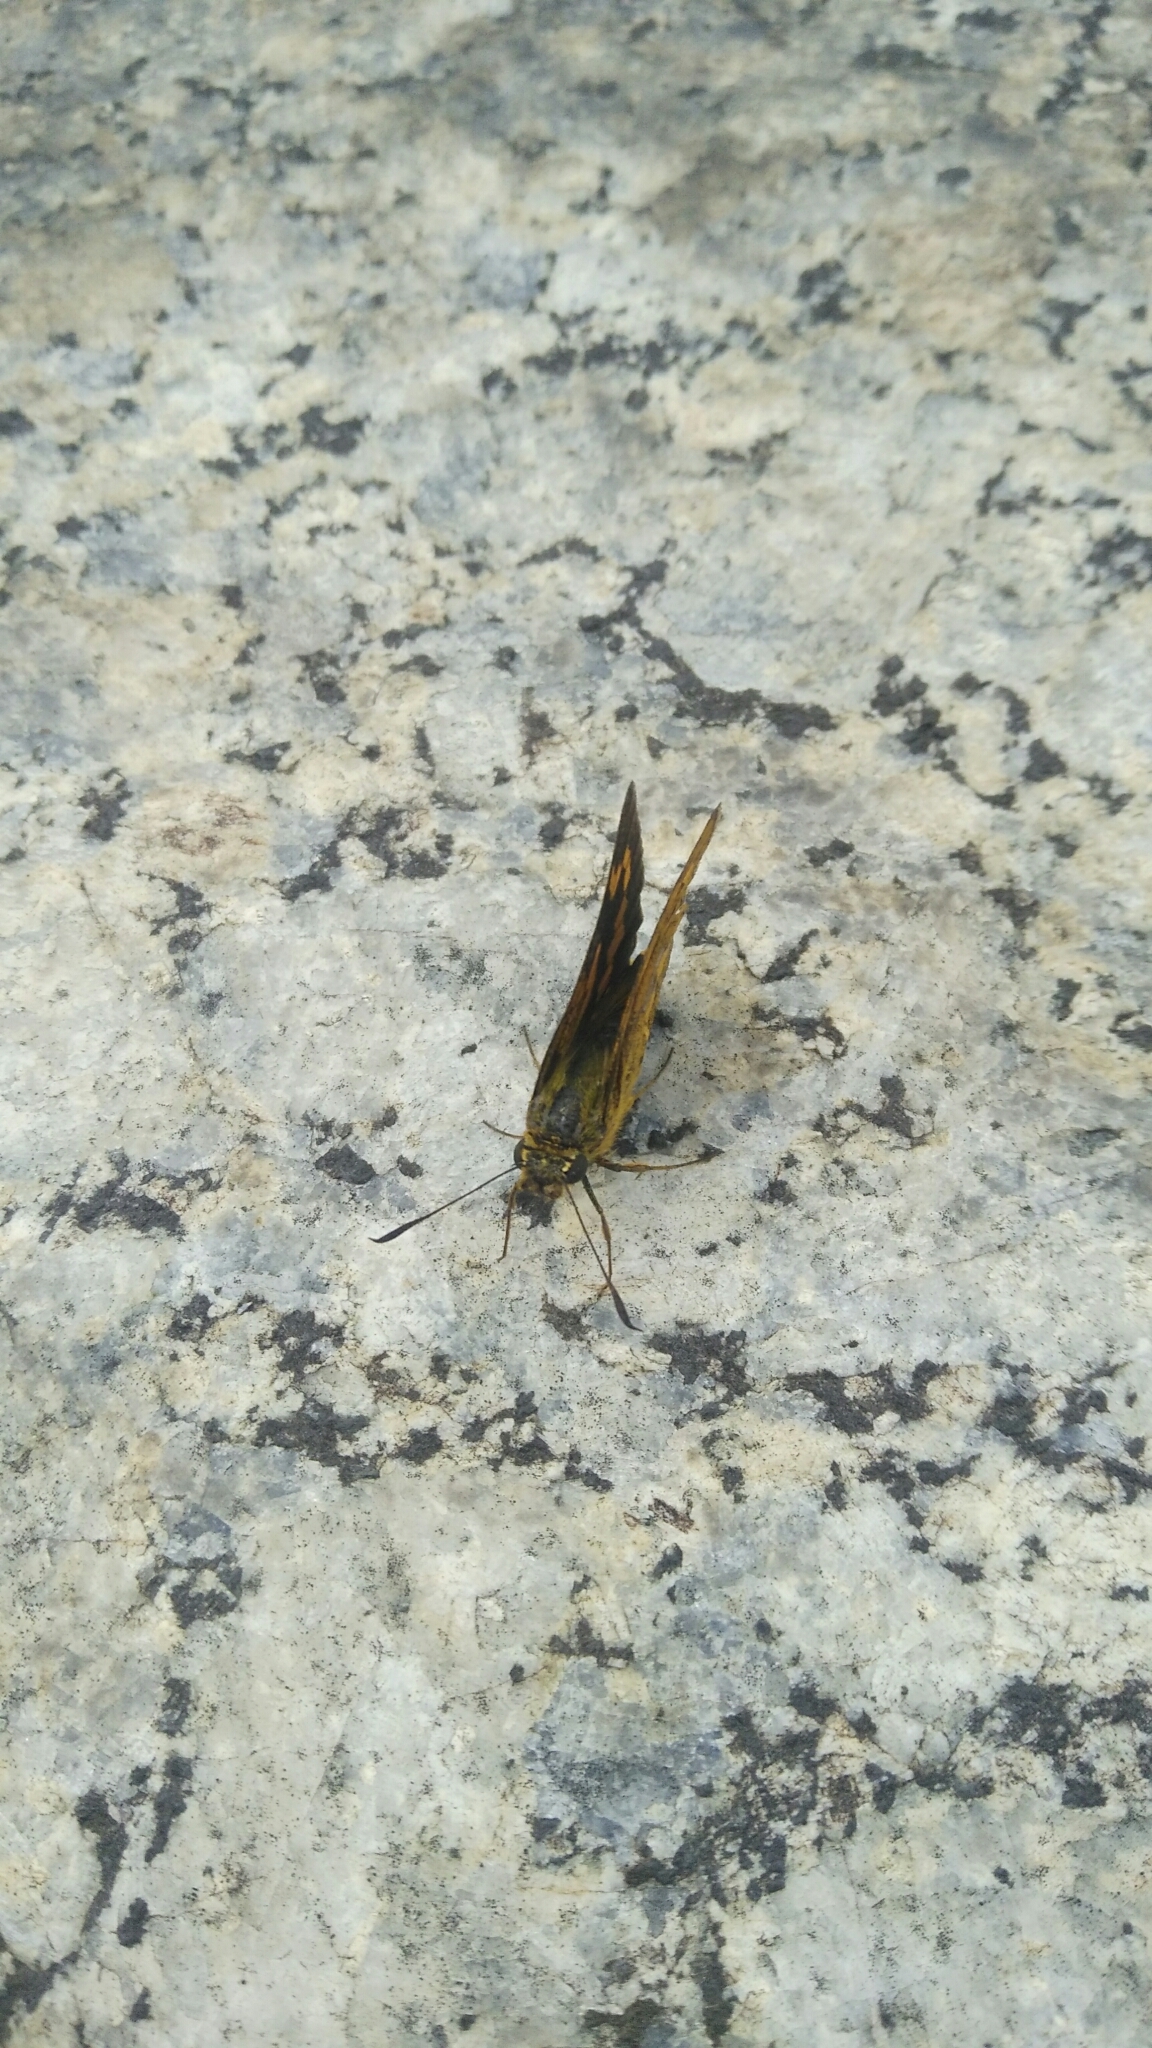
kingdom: Animalia
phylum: Arthropoda
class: Insecta
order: Lepidoptera
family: Hesperiidae
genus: Telicota
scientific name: Telicota ohara
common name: Dark palm dart
